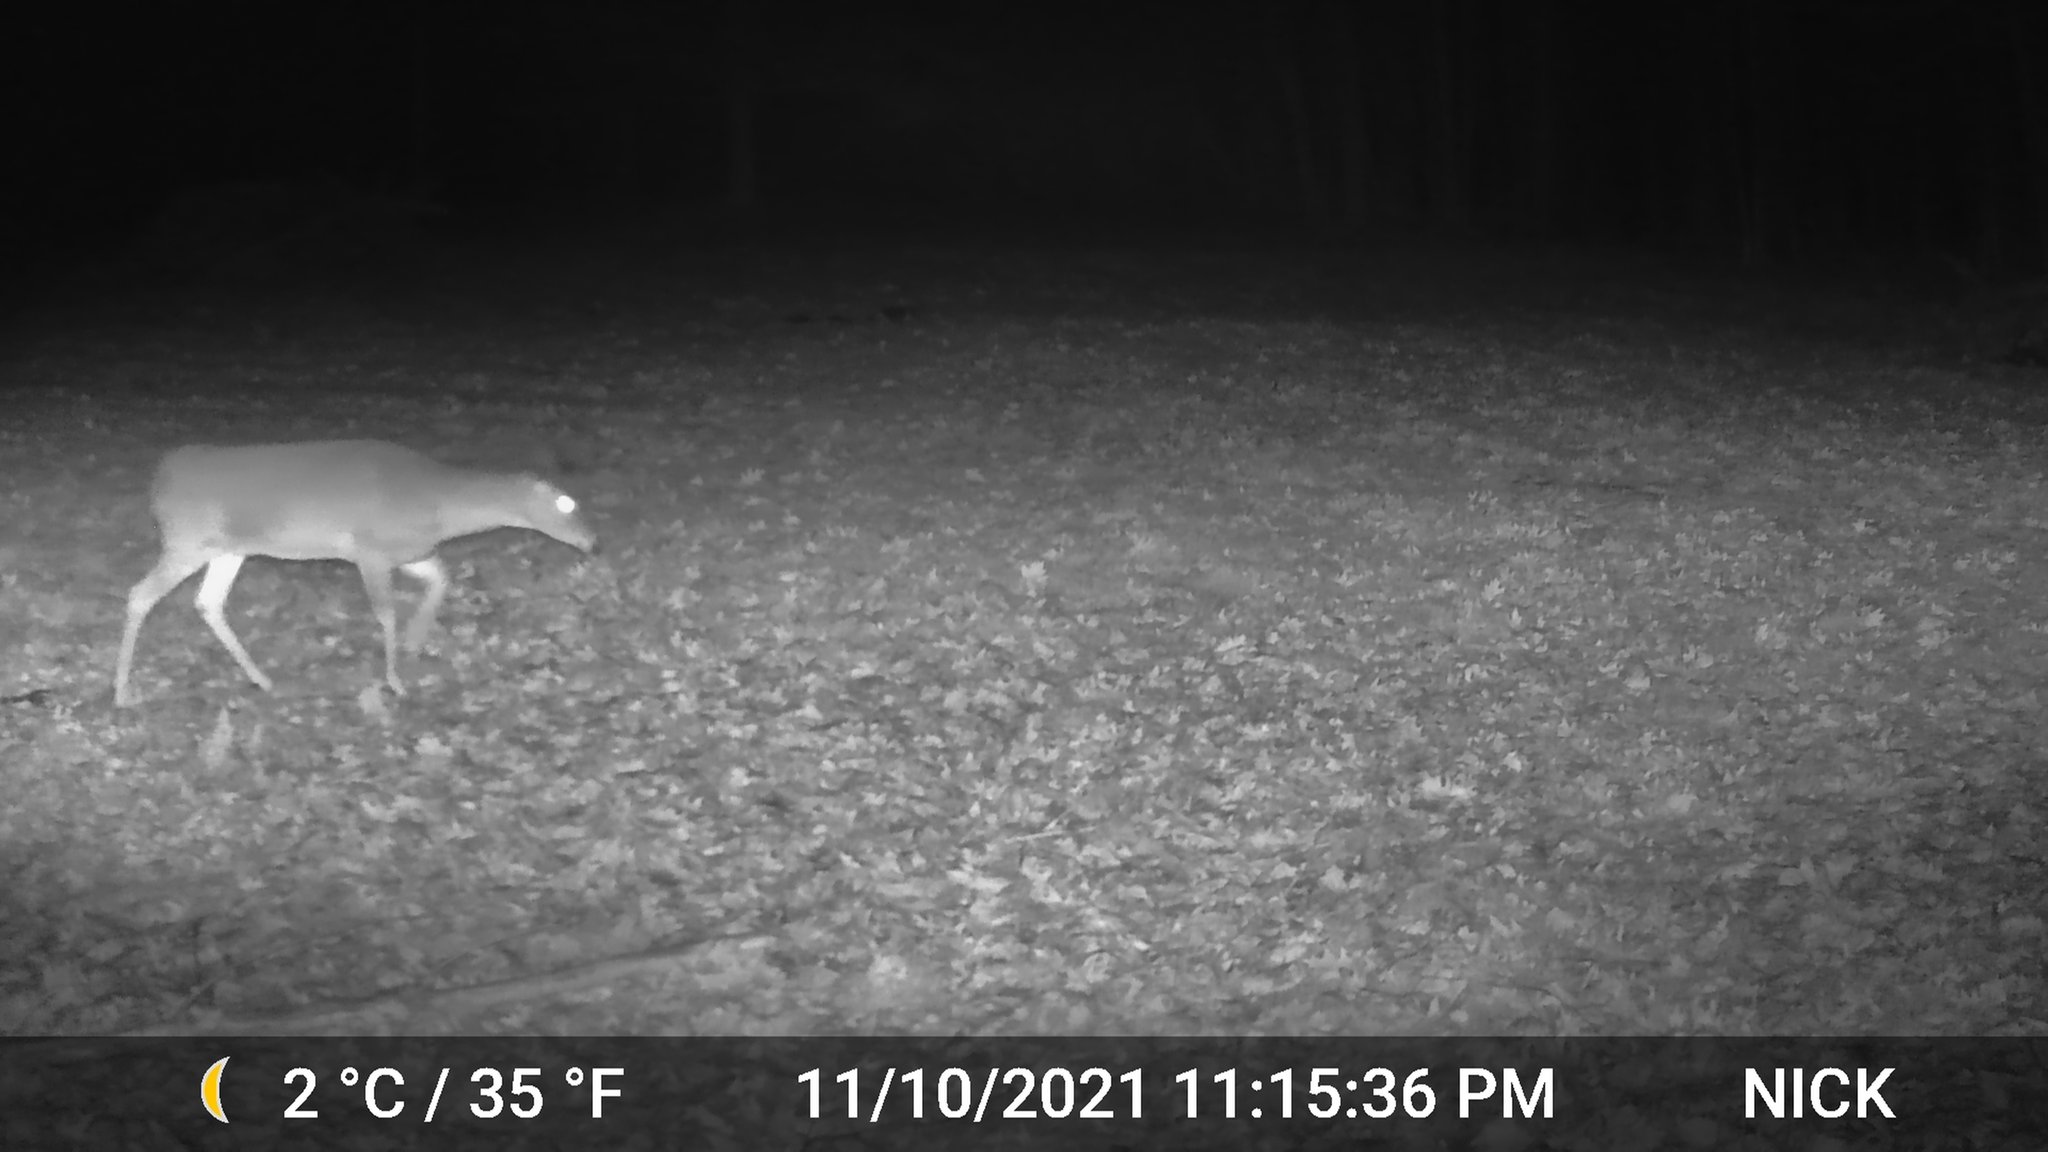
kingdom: Animalia
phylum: Chordata
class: Mammalia
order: Artiodactyla
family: Cervidae
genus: Odocoileus
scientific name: Odocoileus virginianus
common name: White-tailed deer
